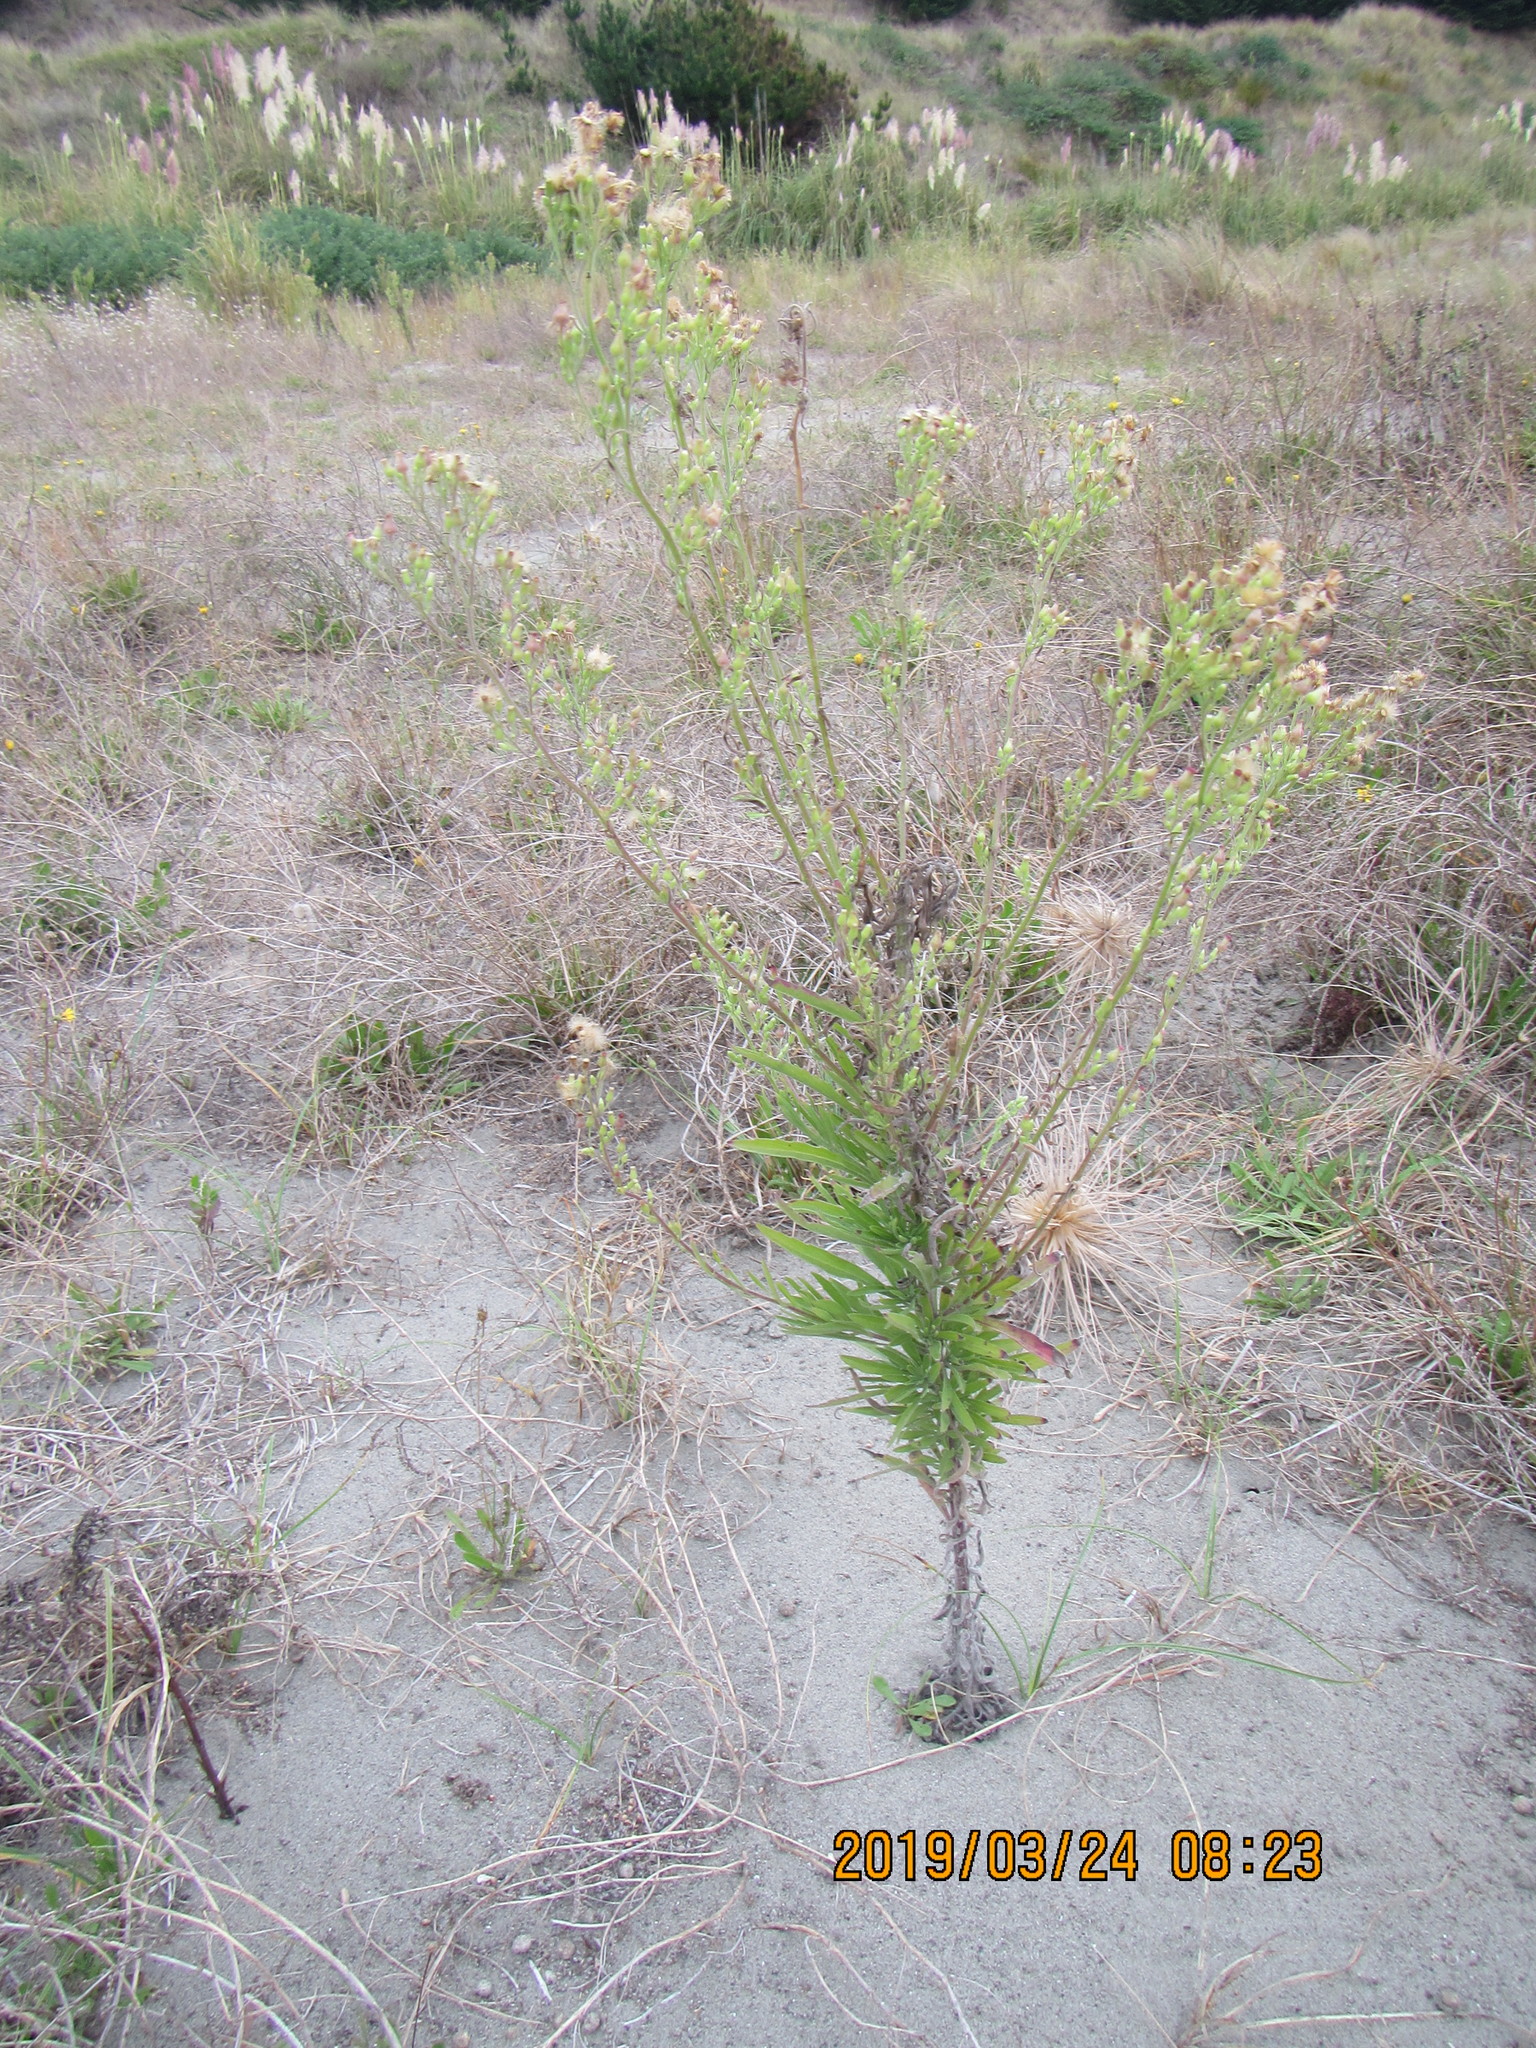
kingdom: Plantae
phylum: Tracheophyta
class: Magnoliopsida
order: Asterales
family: Asteraceae
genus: Erigeron
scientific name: Erigeron sumatrensis
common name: Daisy
